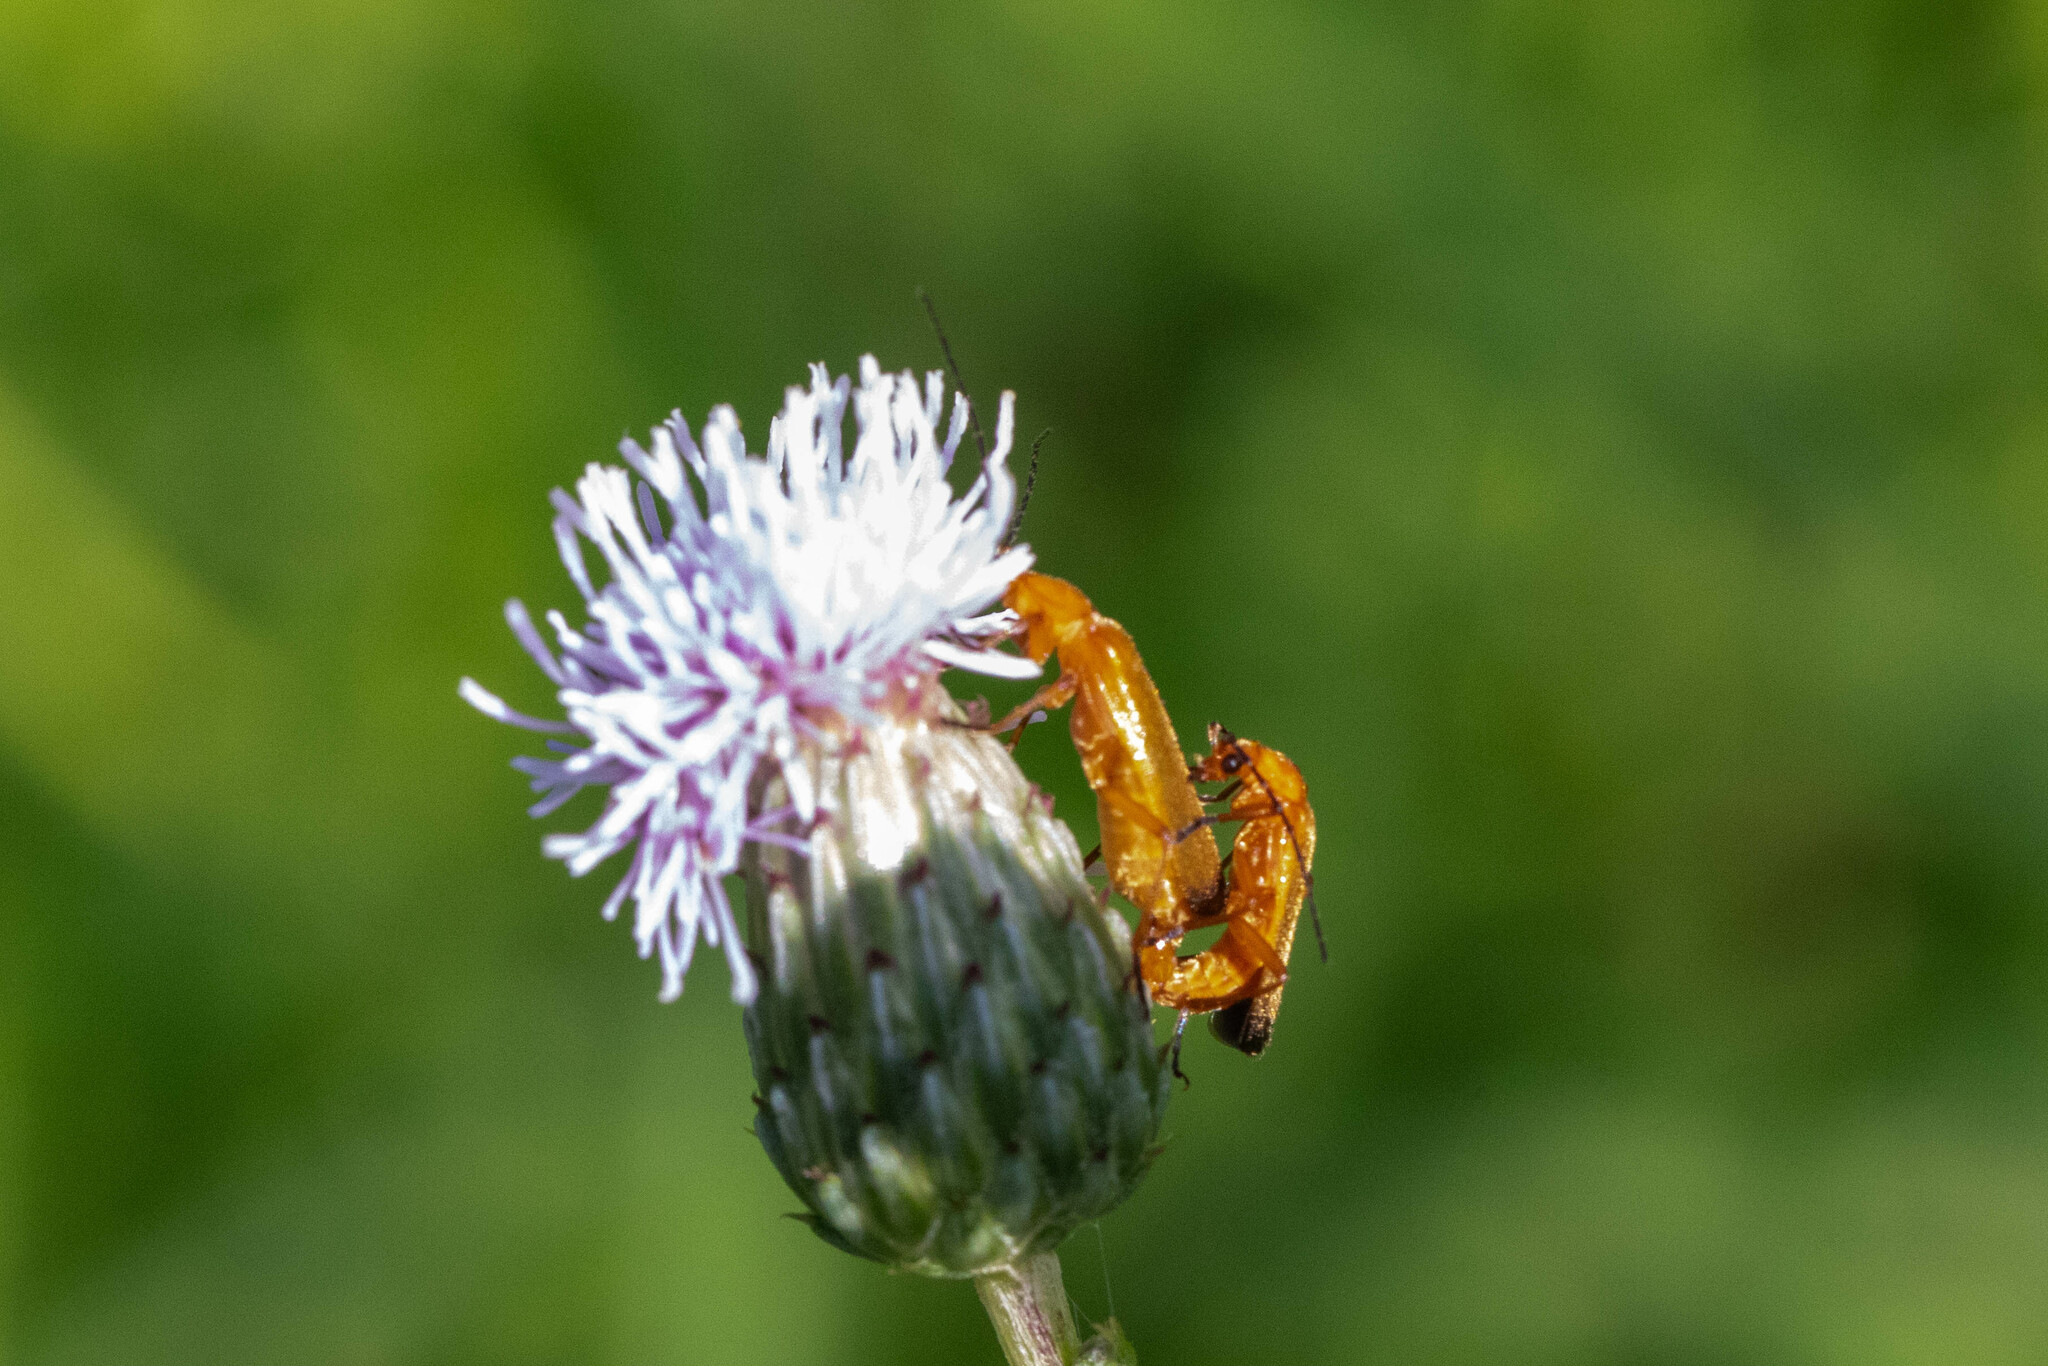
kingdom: Animalia
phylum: Arthropoda
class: Insecta
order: Coleoptera
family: Cantharidae
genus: Rhagonycha
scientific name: Rhagonycha fulva
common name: Common red soldier beetle
